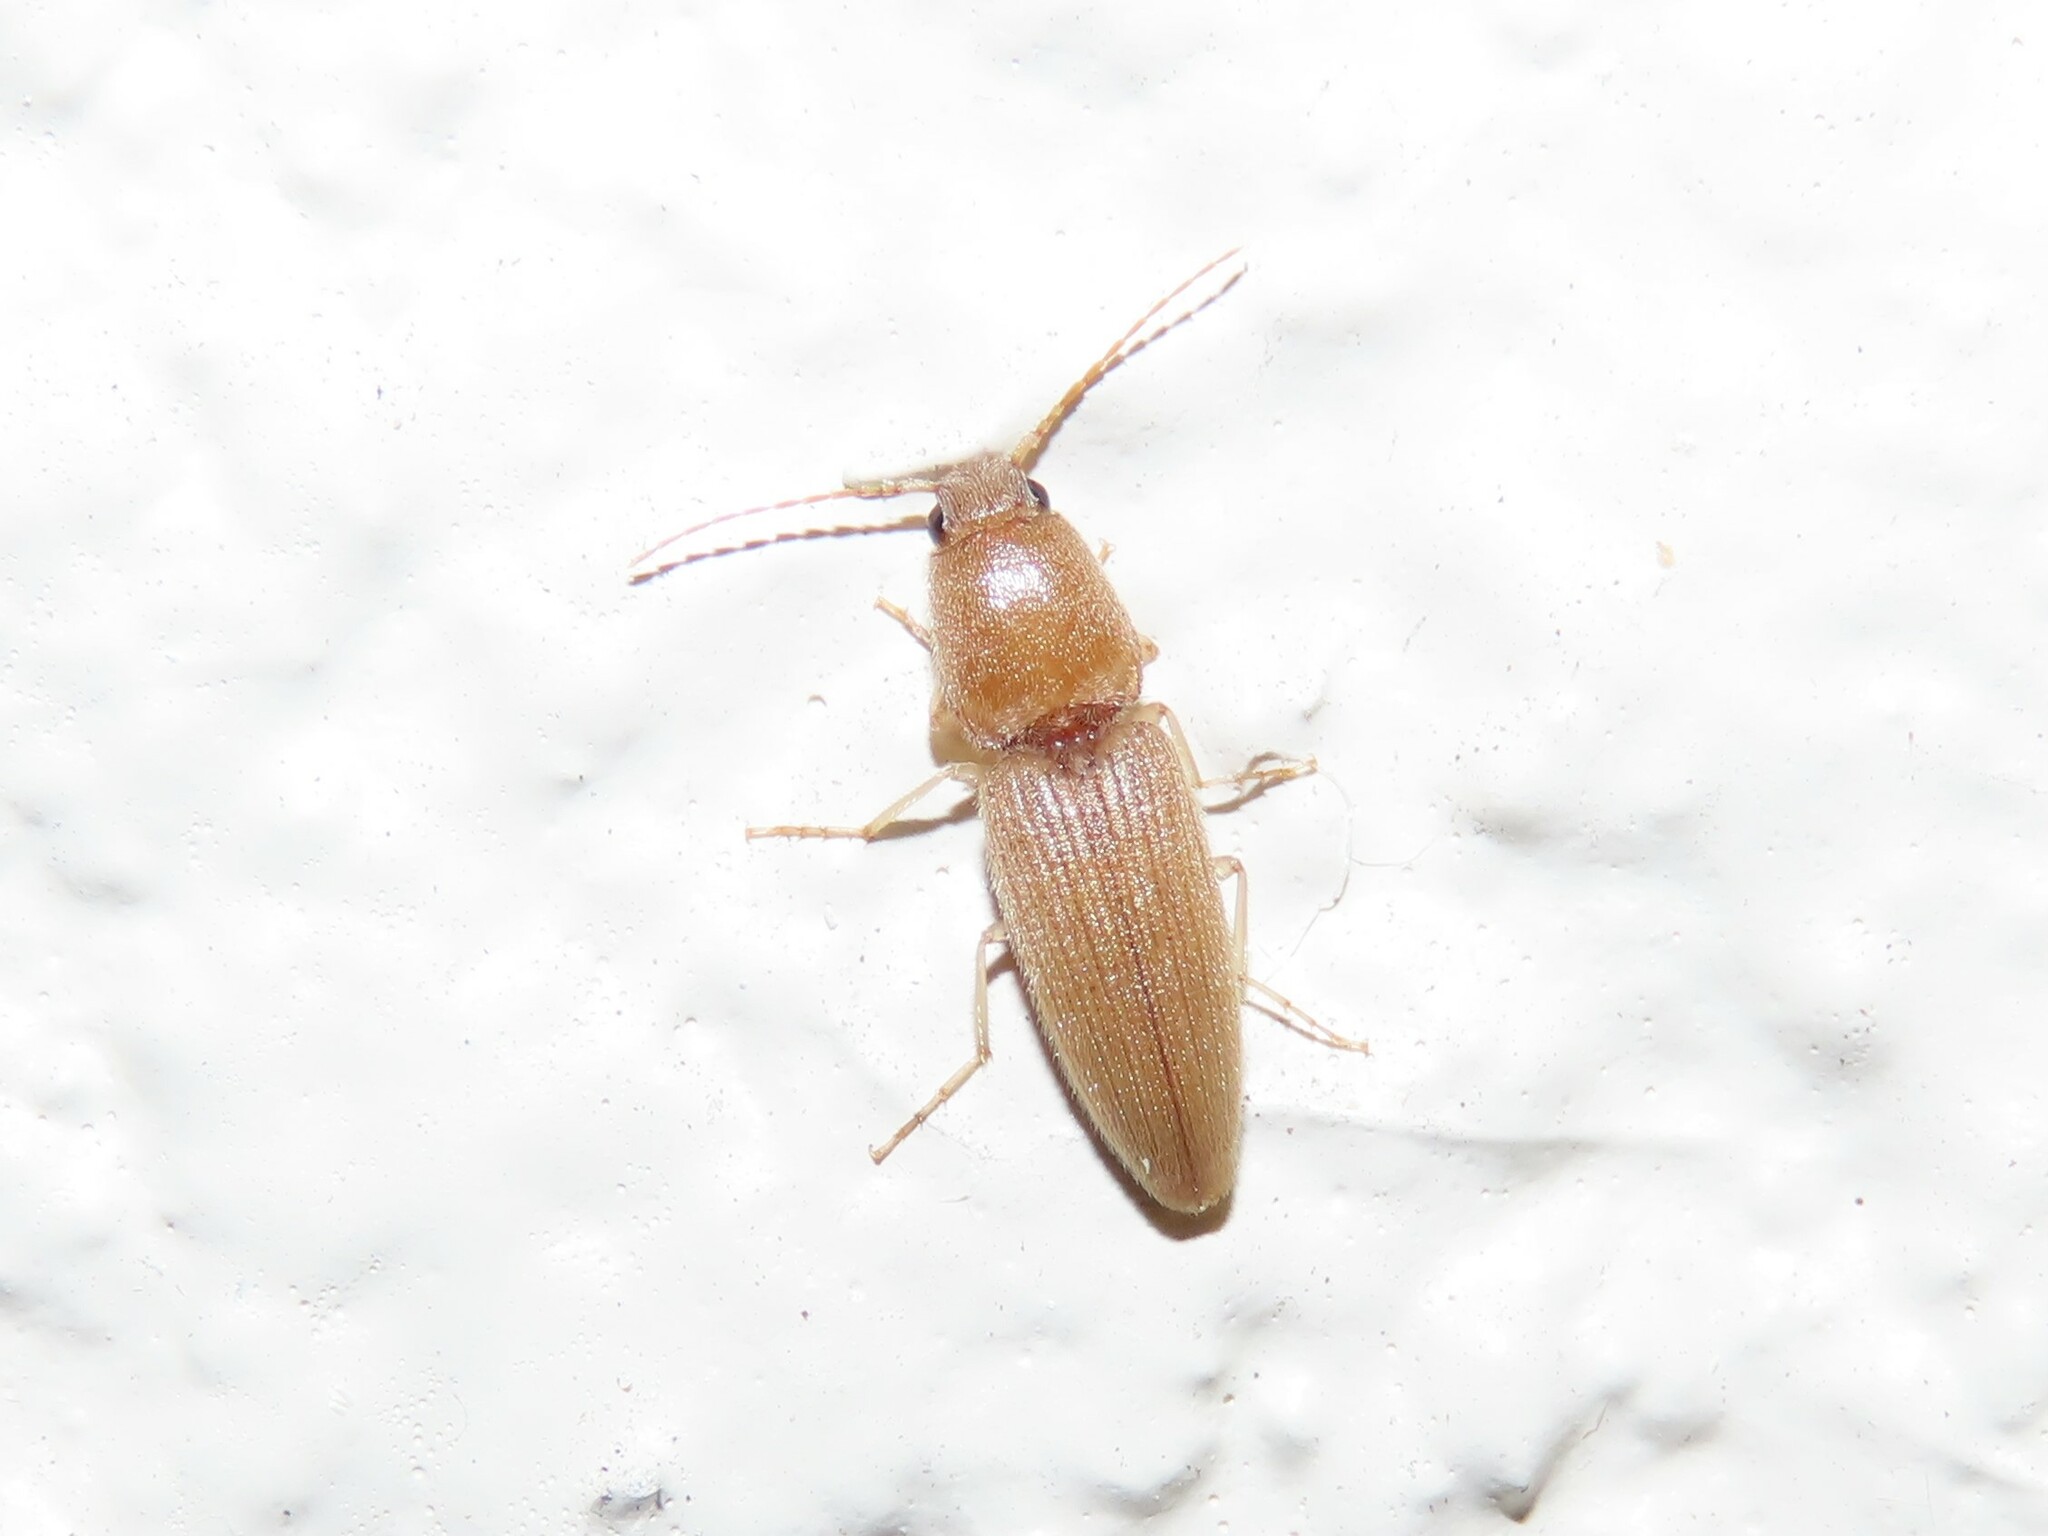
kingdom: Animalia
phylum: Arthropoda
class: Insecta
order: Coleoptera
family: Elateridae
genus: Monocrepidius
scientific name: Monocrepidius scissus
